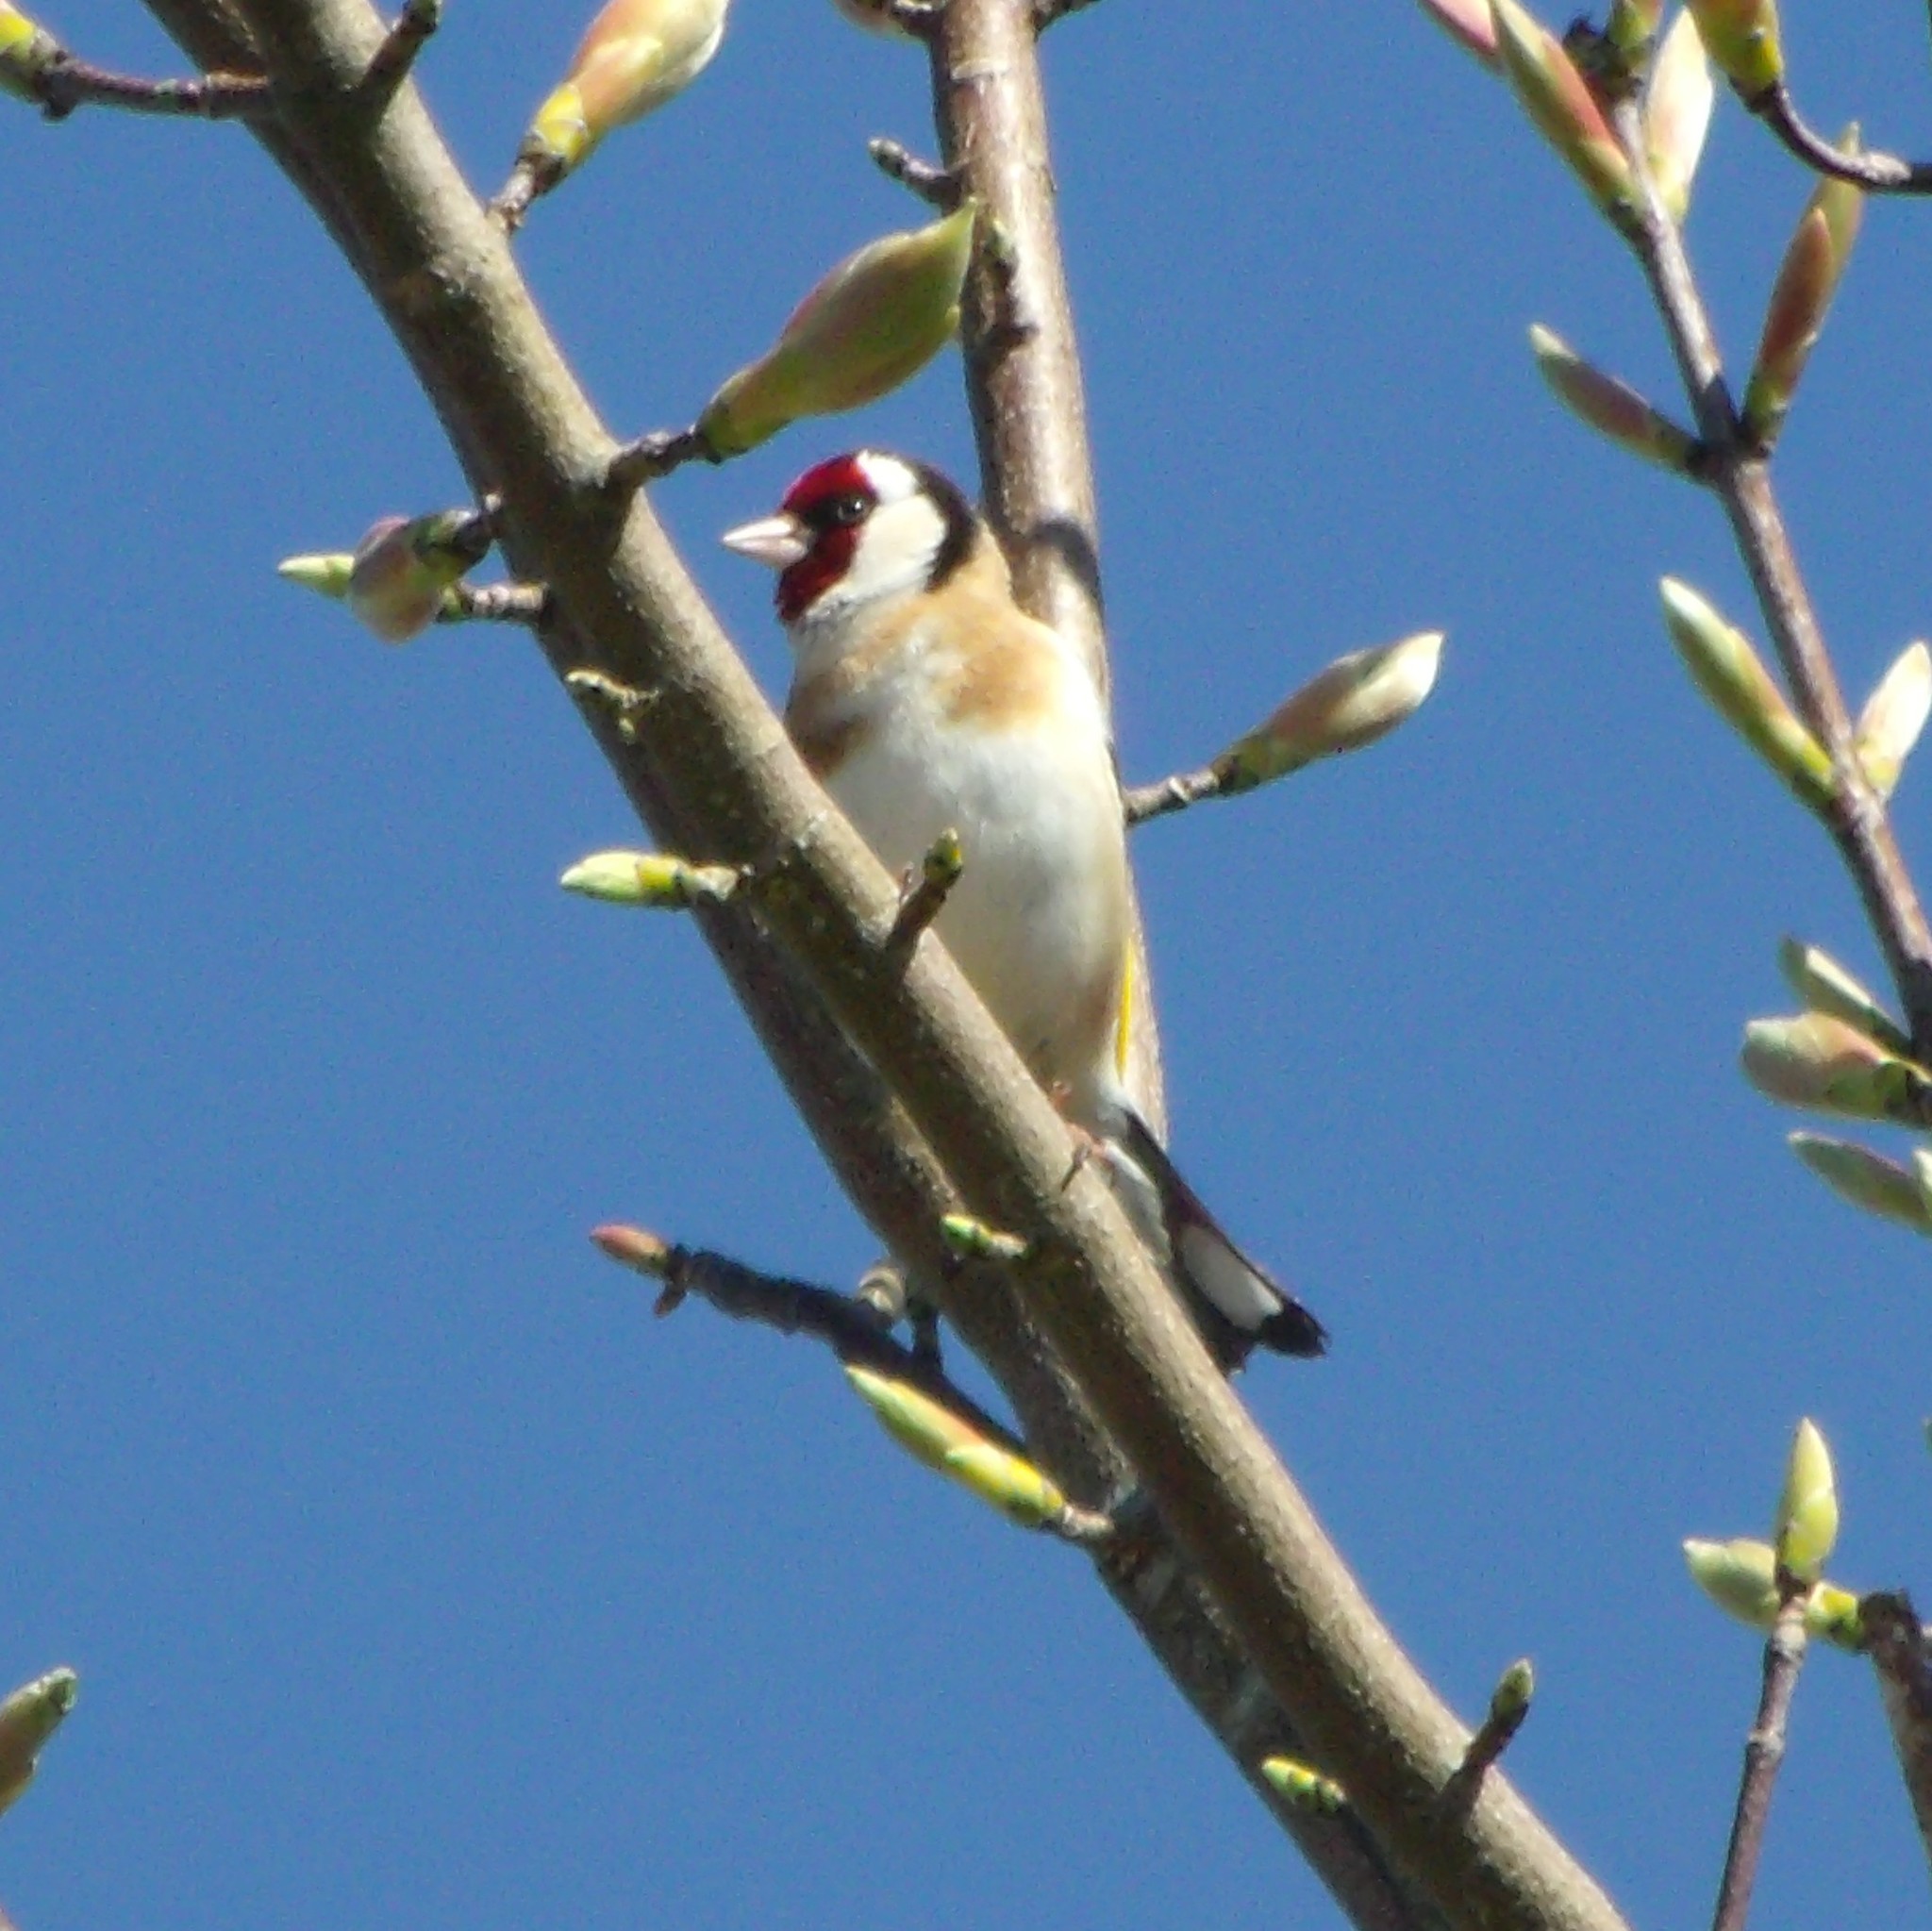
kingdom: Animalia
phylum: Chordata
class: Aves
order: Passeriformes
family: Fringillidae
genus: Carduelis
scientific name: Carduelis carduelis
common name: European goldfinch
